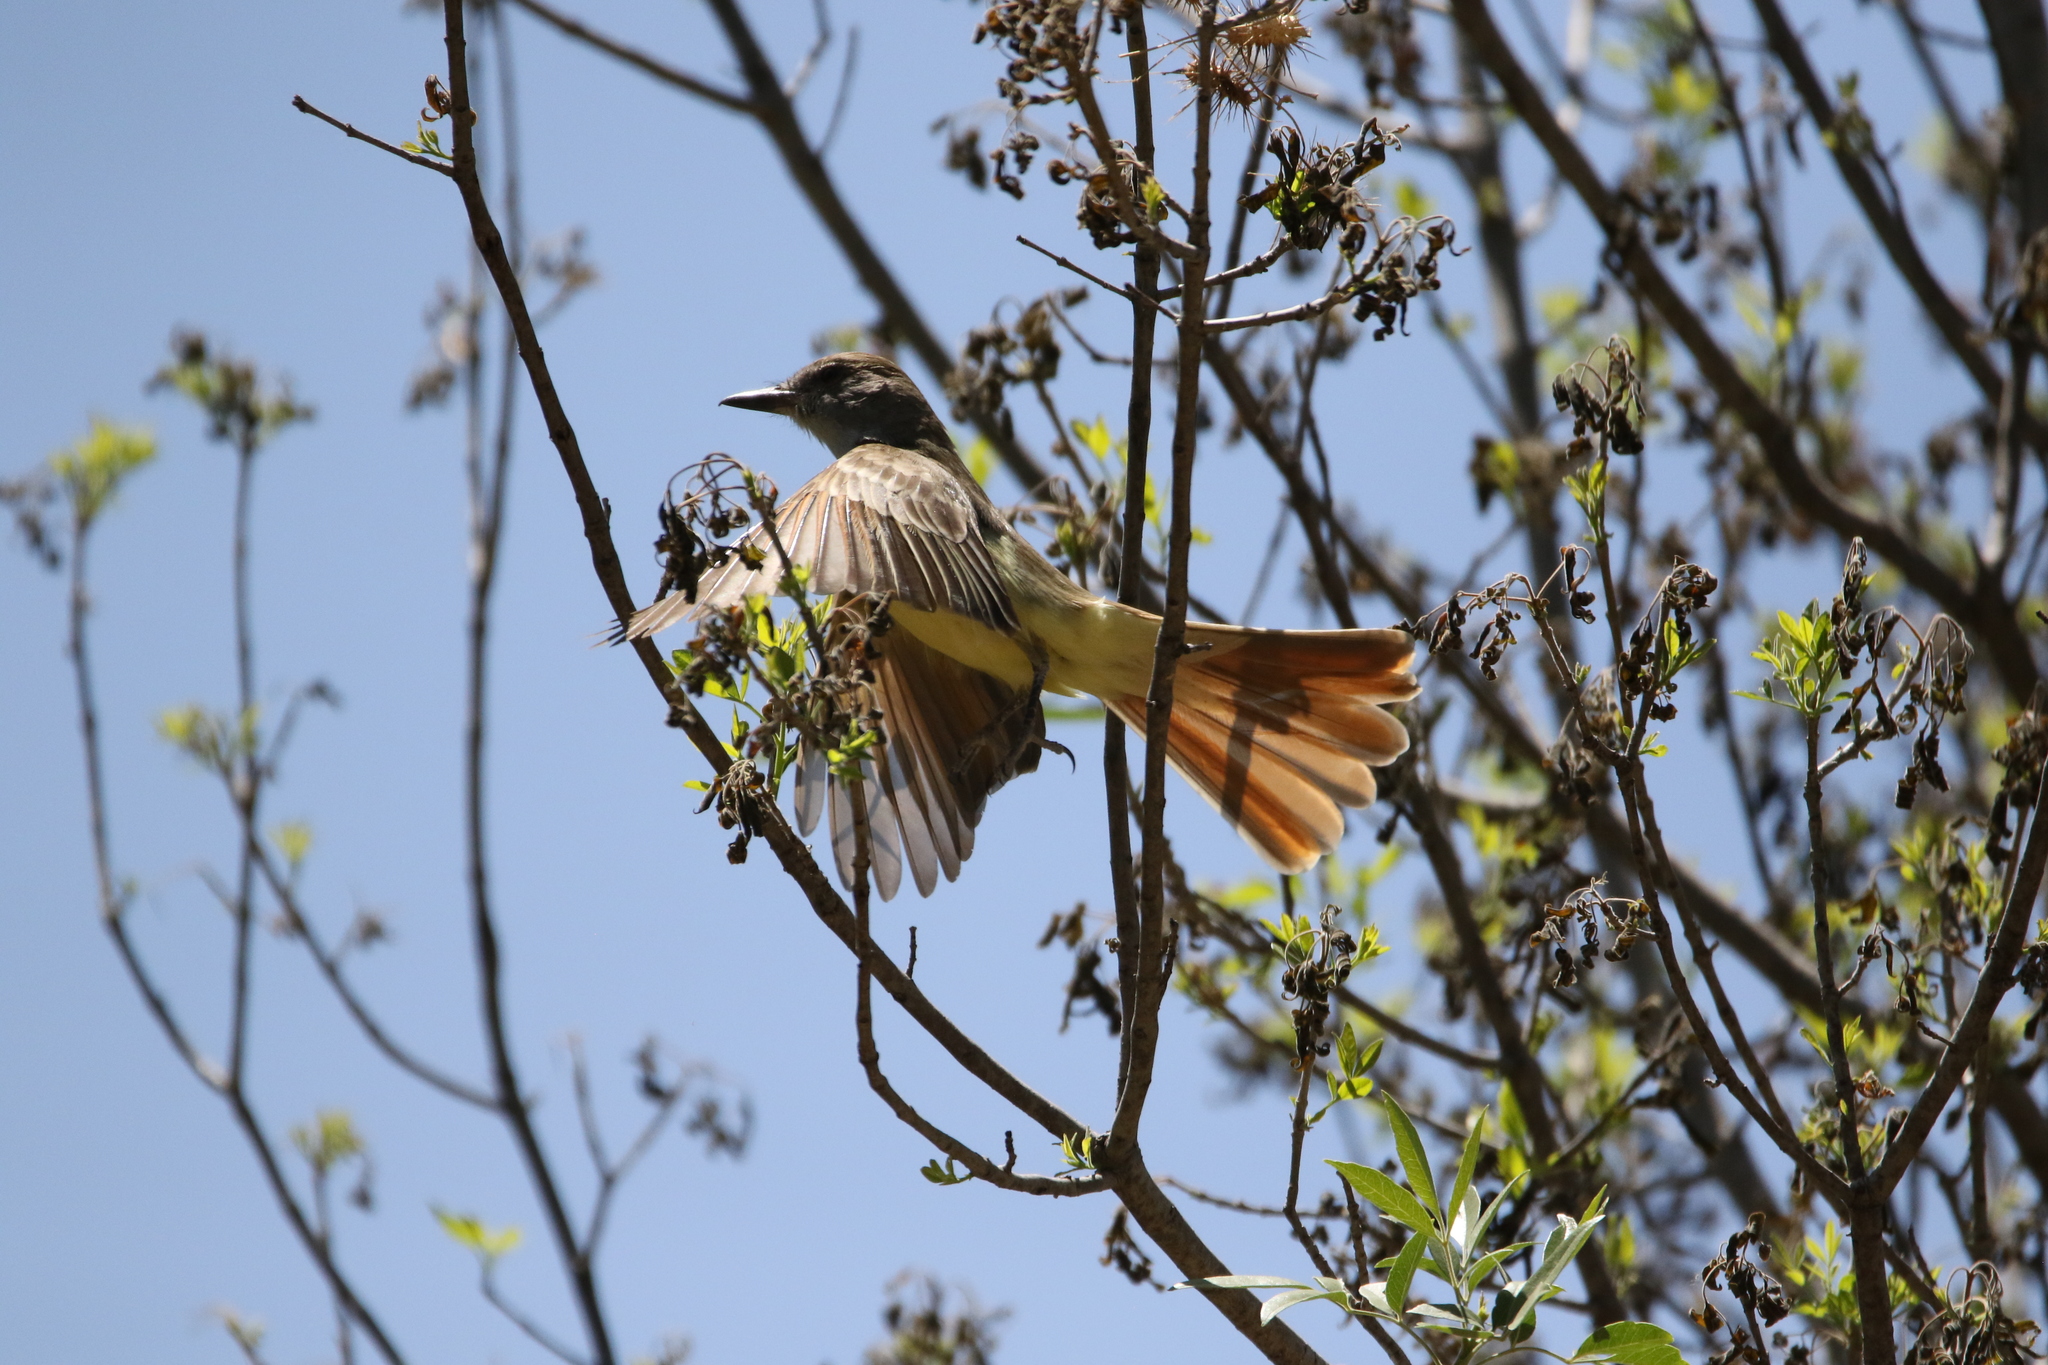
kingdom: Animalia
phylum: Chordata
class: Aves
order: Passeriformes
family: Tyrannidae
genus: Myiarchus
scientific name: Myiarchus tyrannulus
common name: Brown-crested flycatcher
